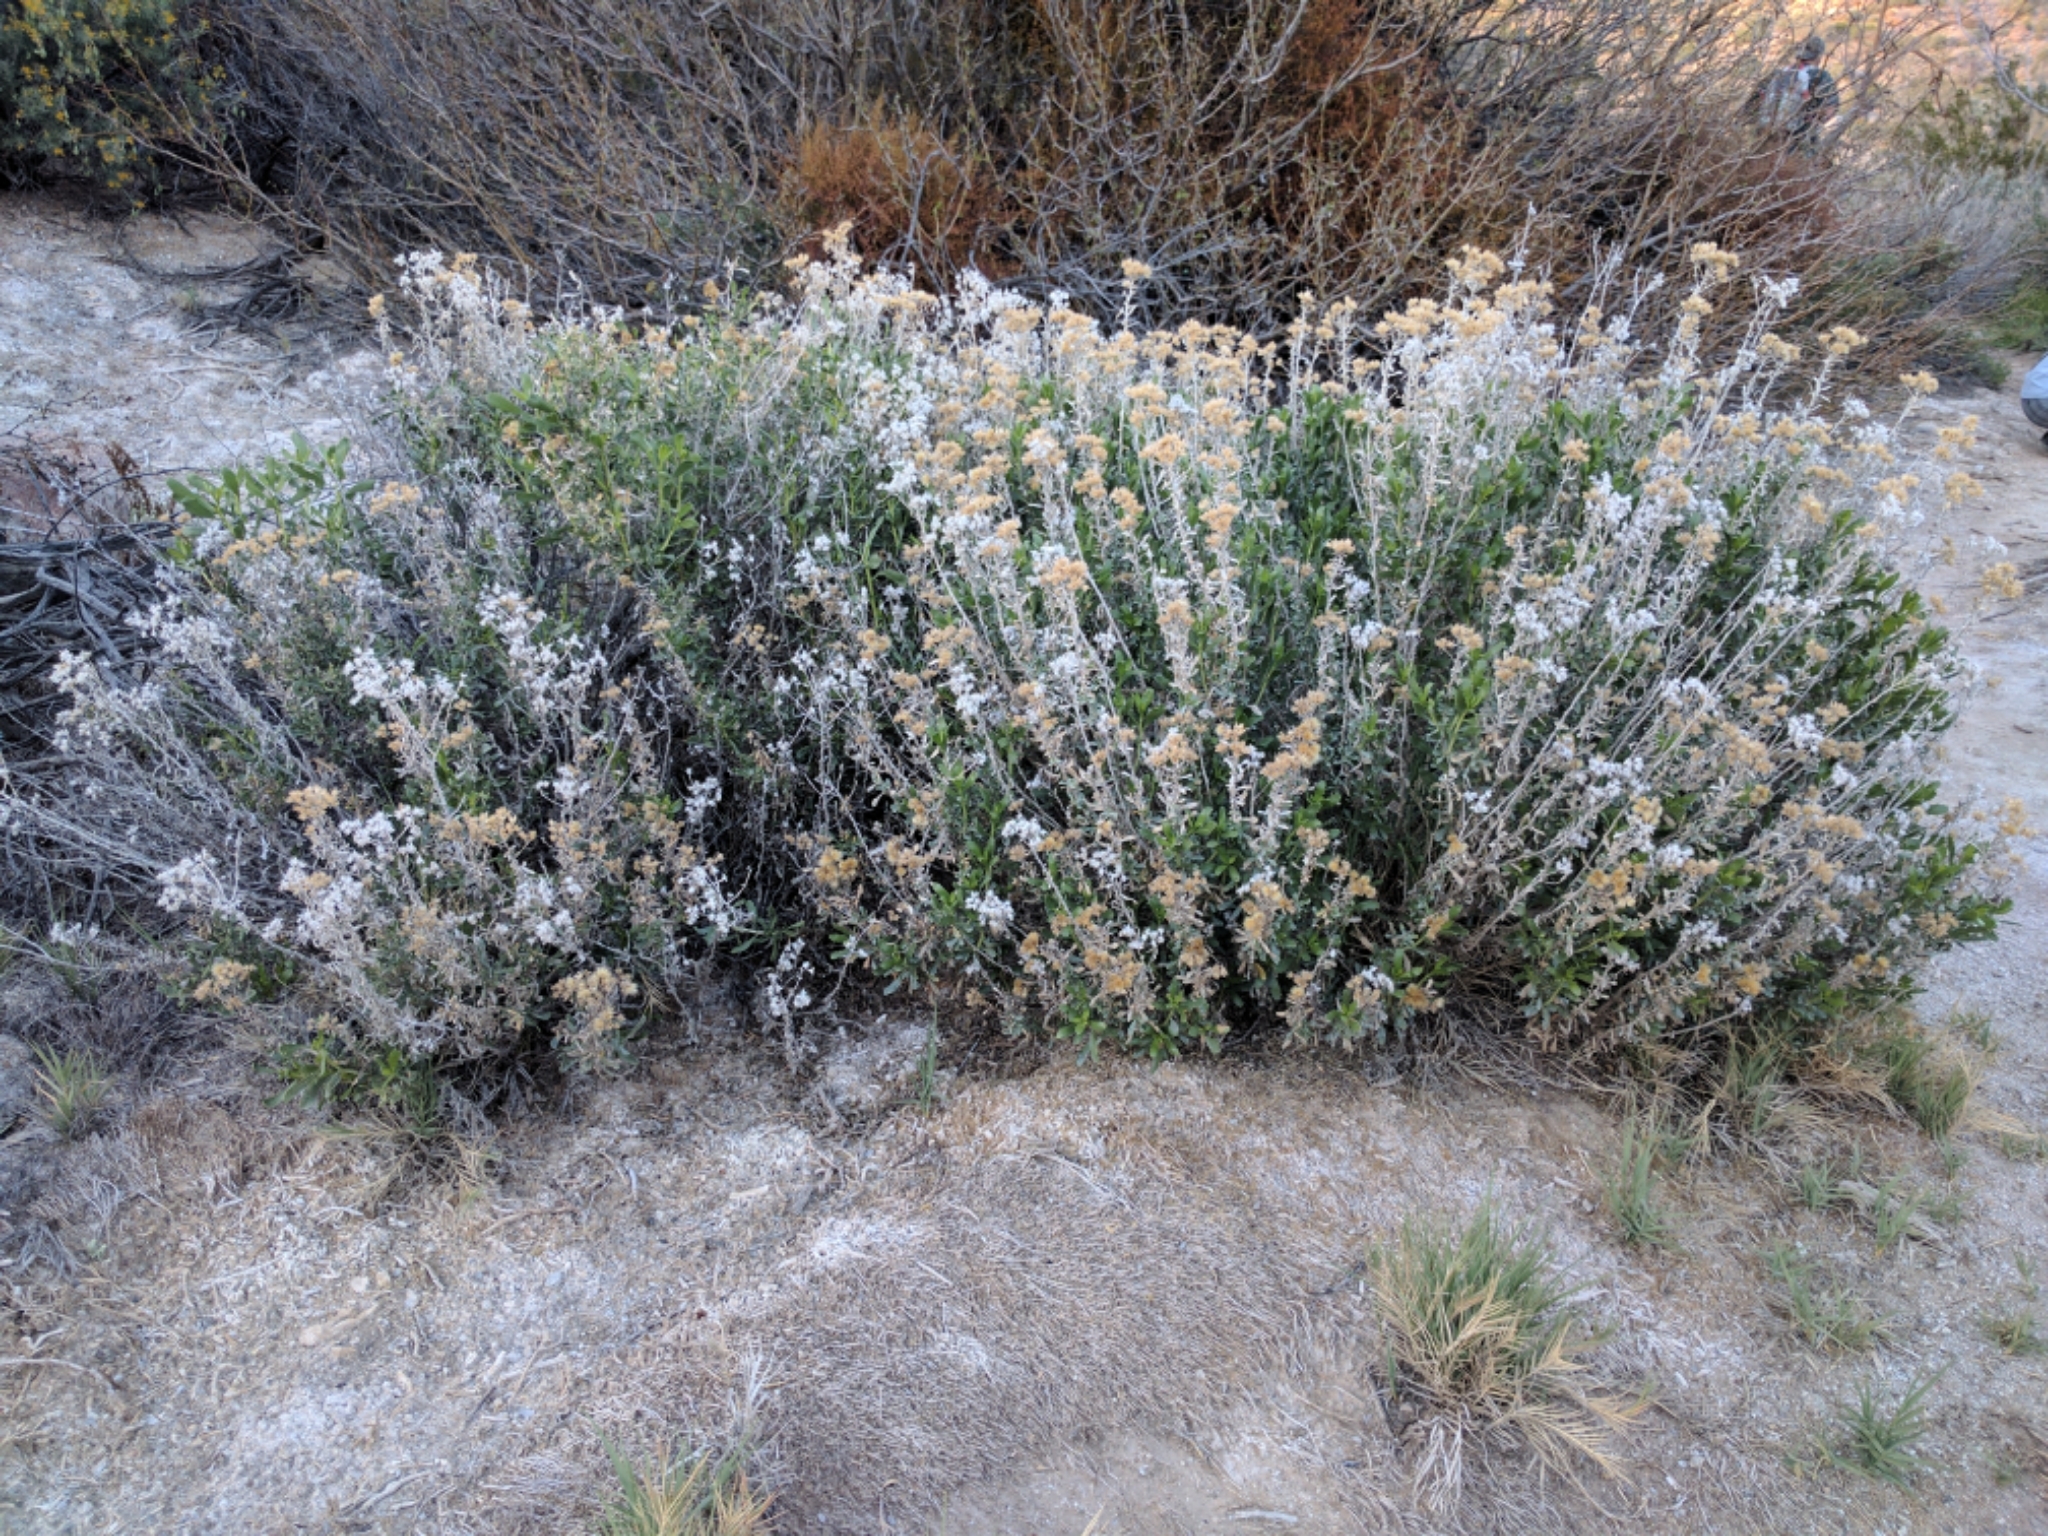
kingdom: Plantae
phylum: Tracheophyta
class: Magnoliopsida
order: Asterales
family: Asteraceae
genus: Isocoma
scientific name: Isocoma acradenia
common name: Alkali jimmyweed
